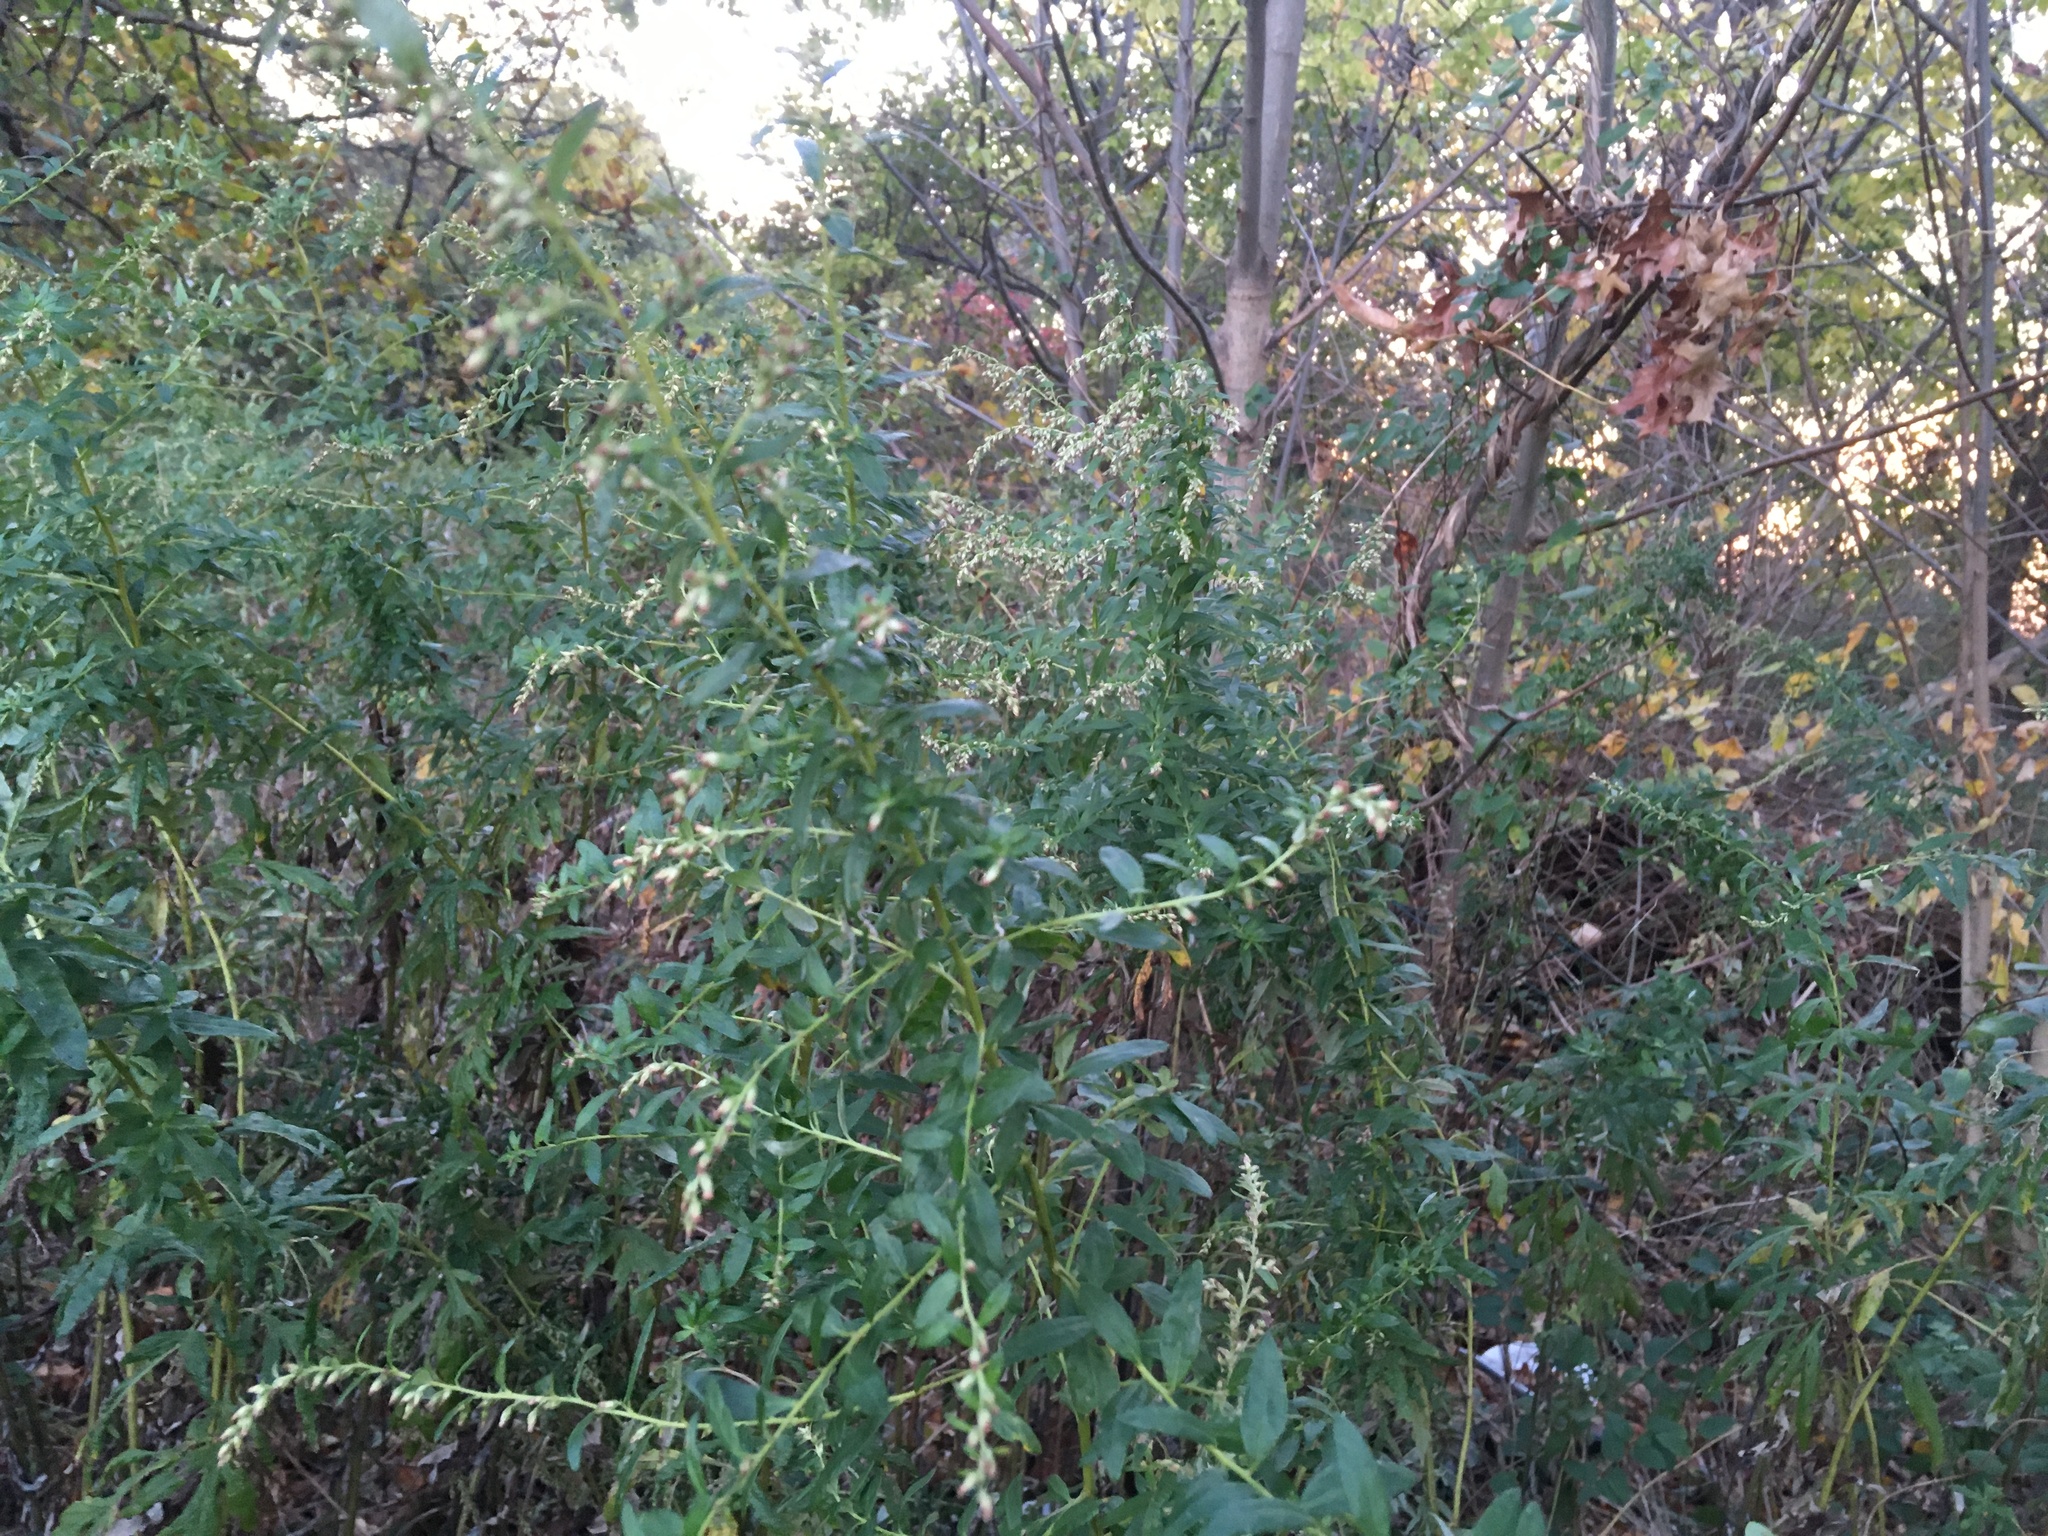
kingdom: Plantae
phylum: Tracheophyta
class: Magnoliopsida
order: Asterales
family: Asteraceae
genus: Artemisia
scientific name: Artemisia vulgaris
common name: Mugwort
